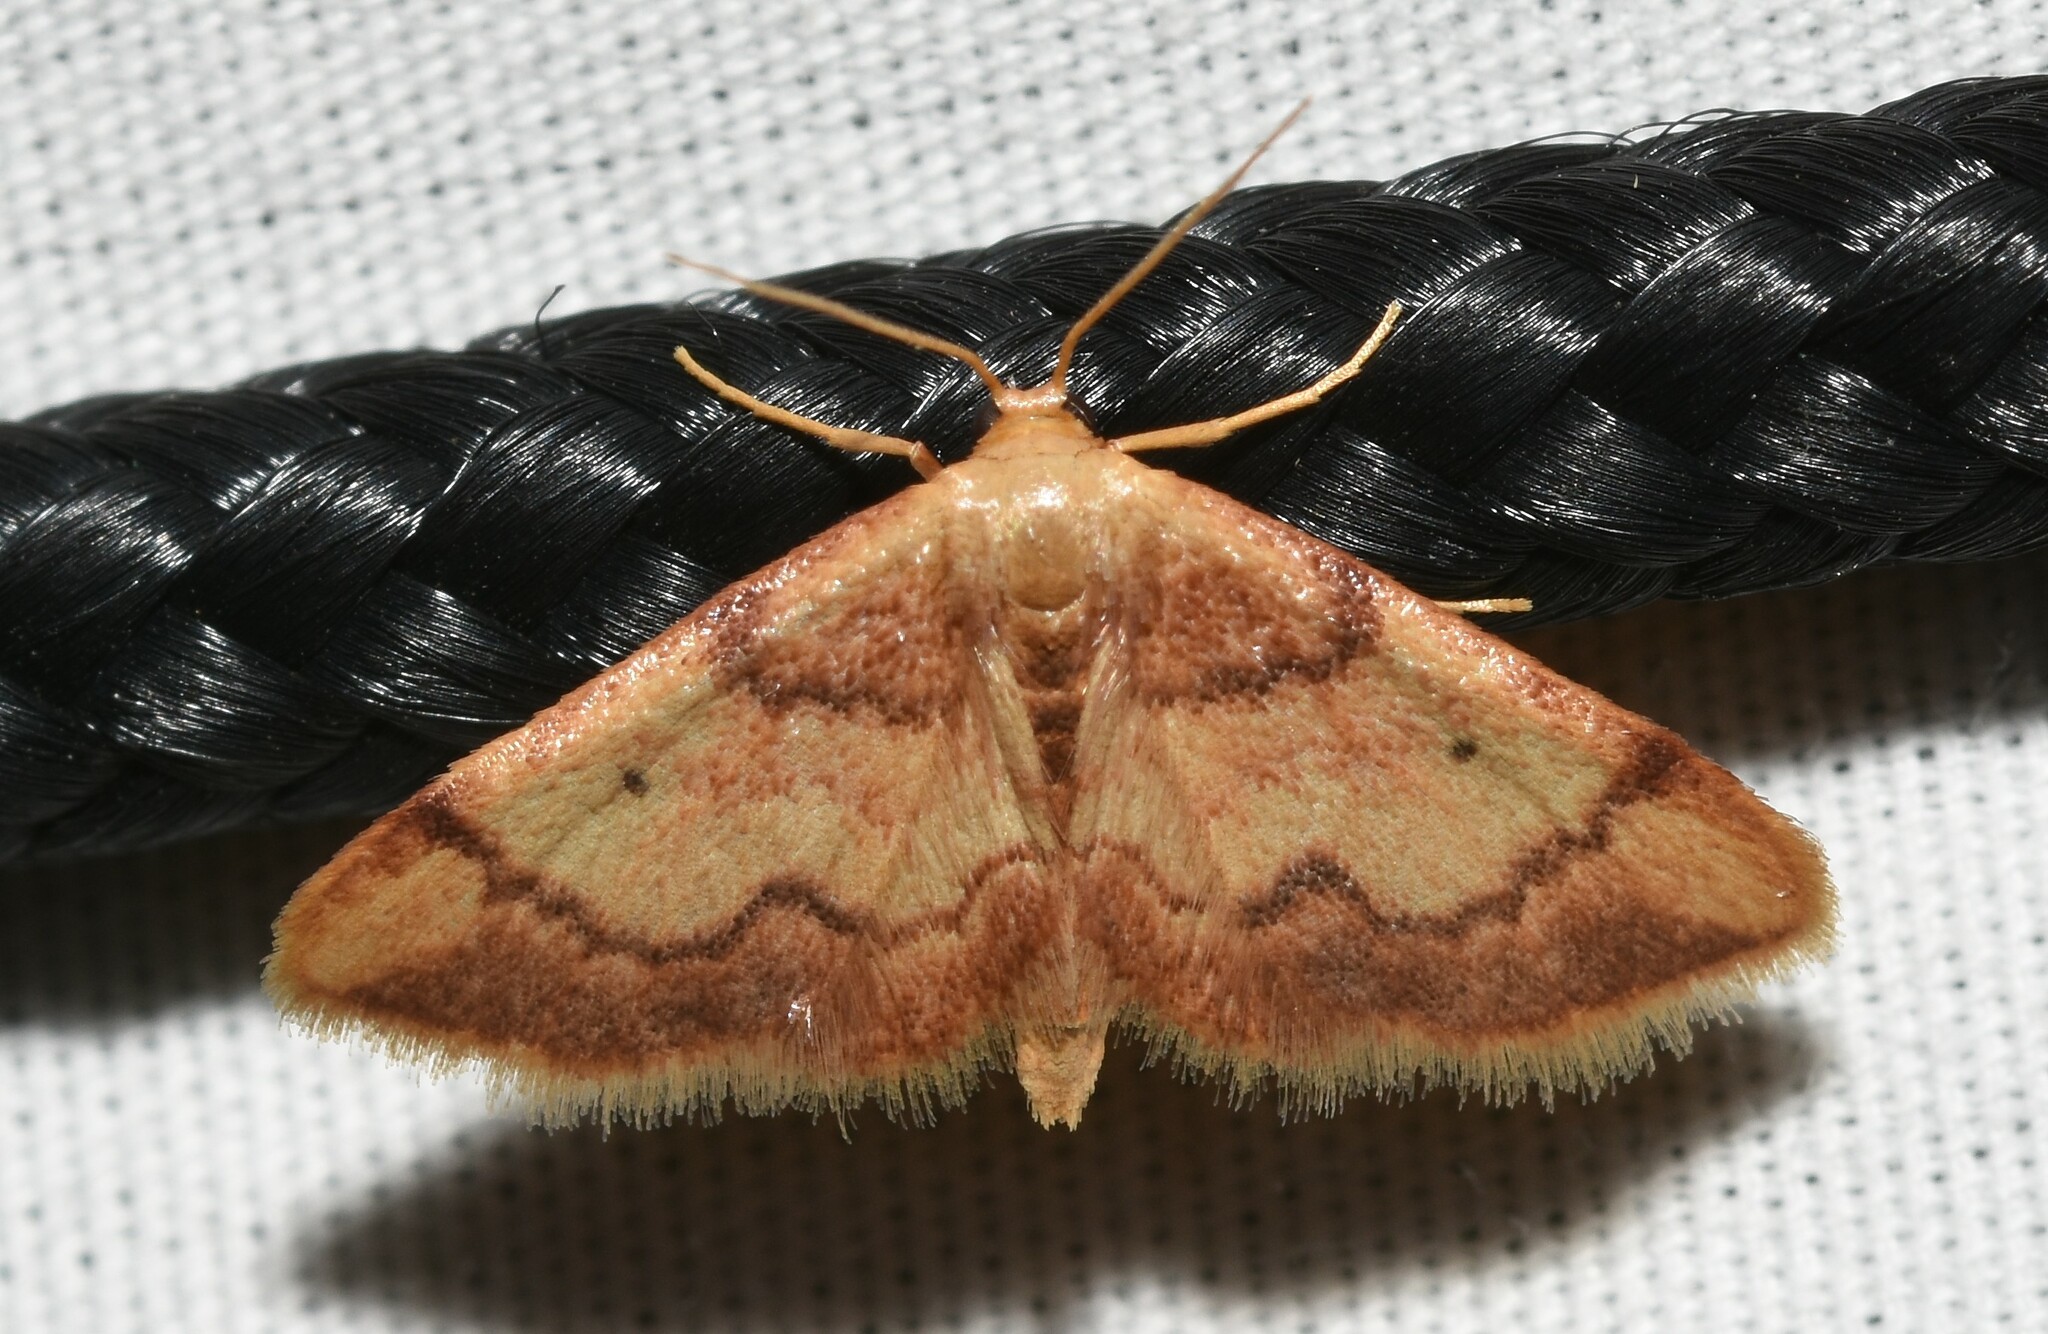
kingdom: Animalia
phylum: Arthropoda
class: Insecta
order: Lepidoptera
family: Geometridae
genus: Idaea
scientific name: Idaea demissaria
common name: Red-bordered wave
